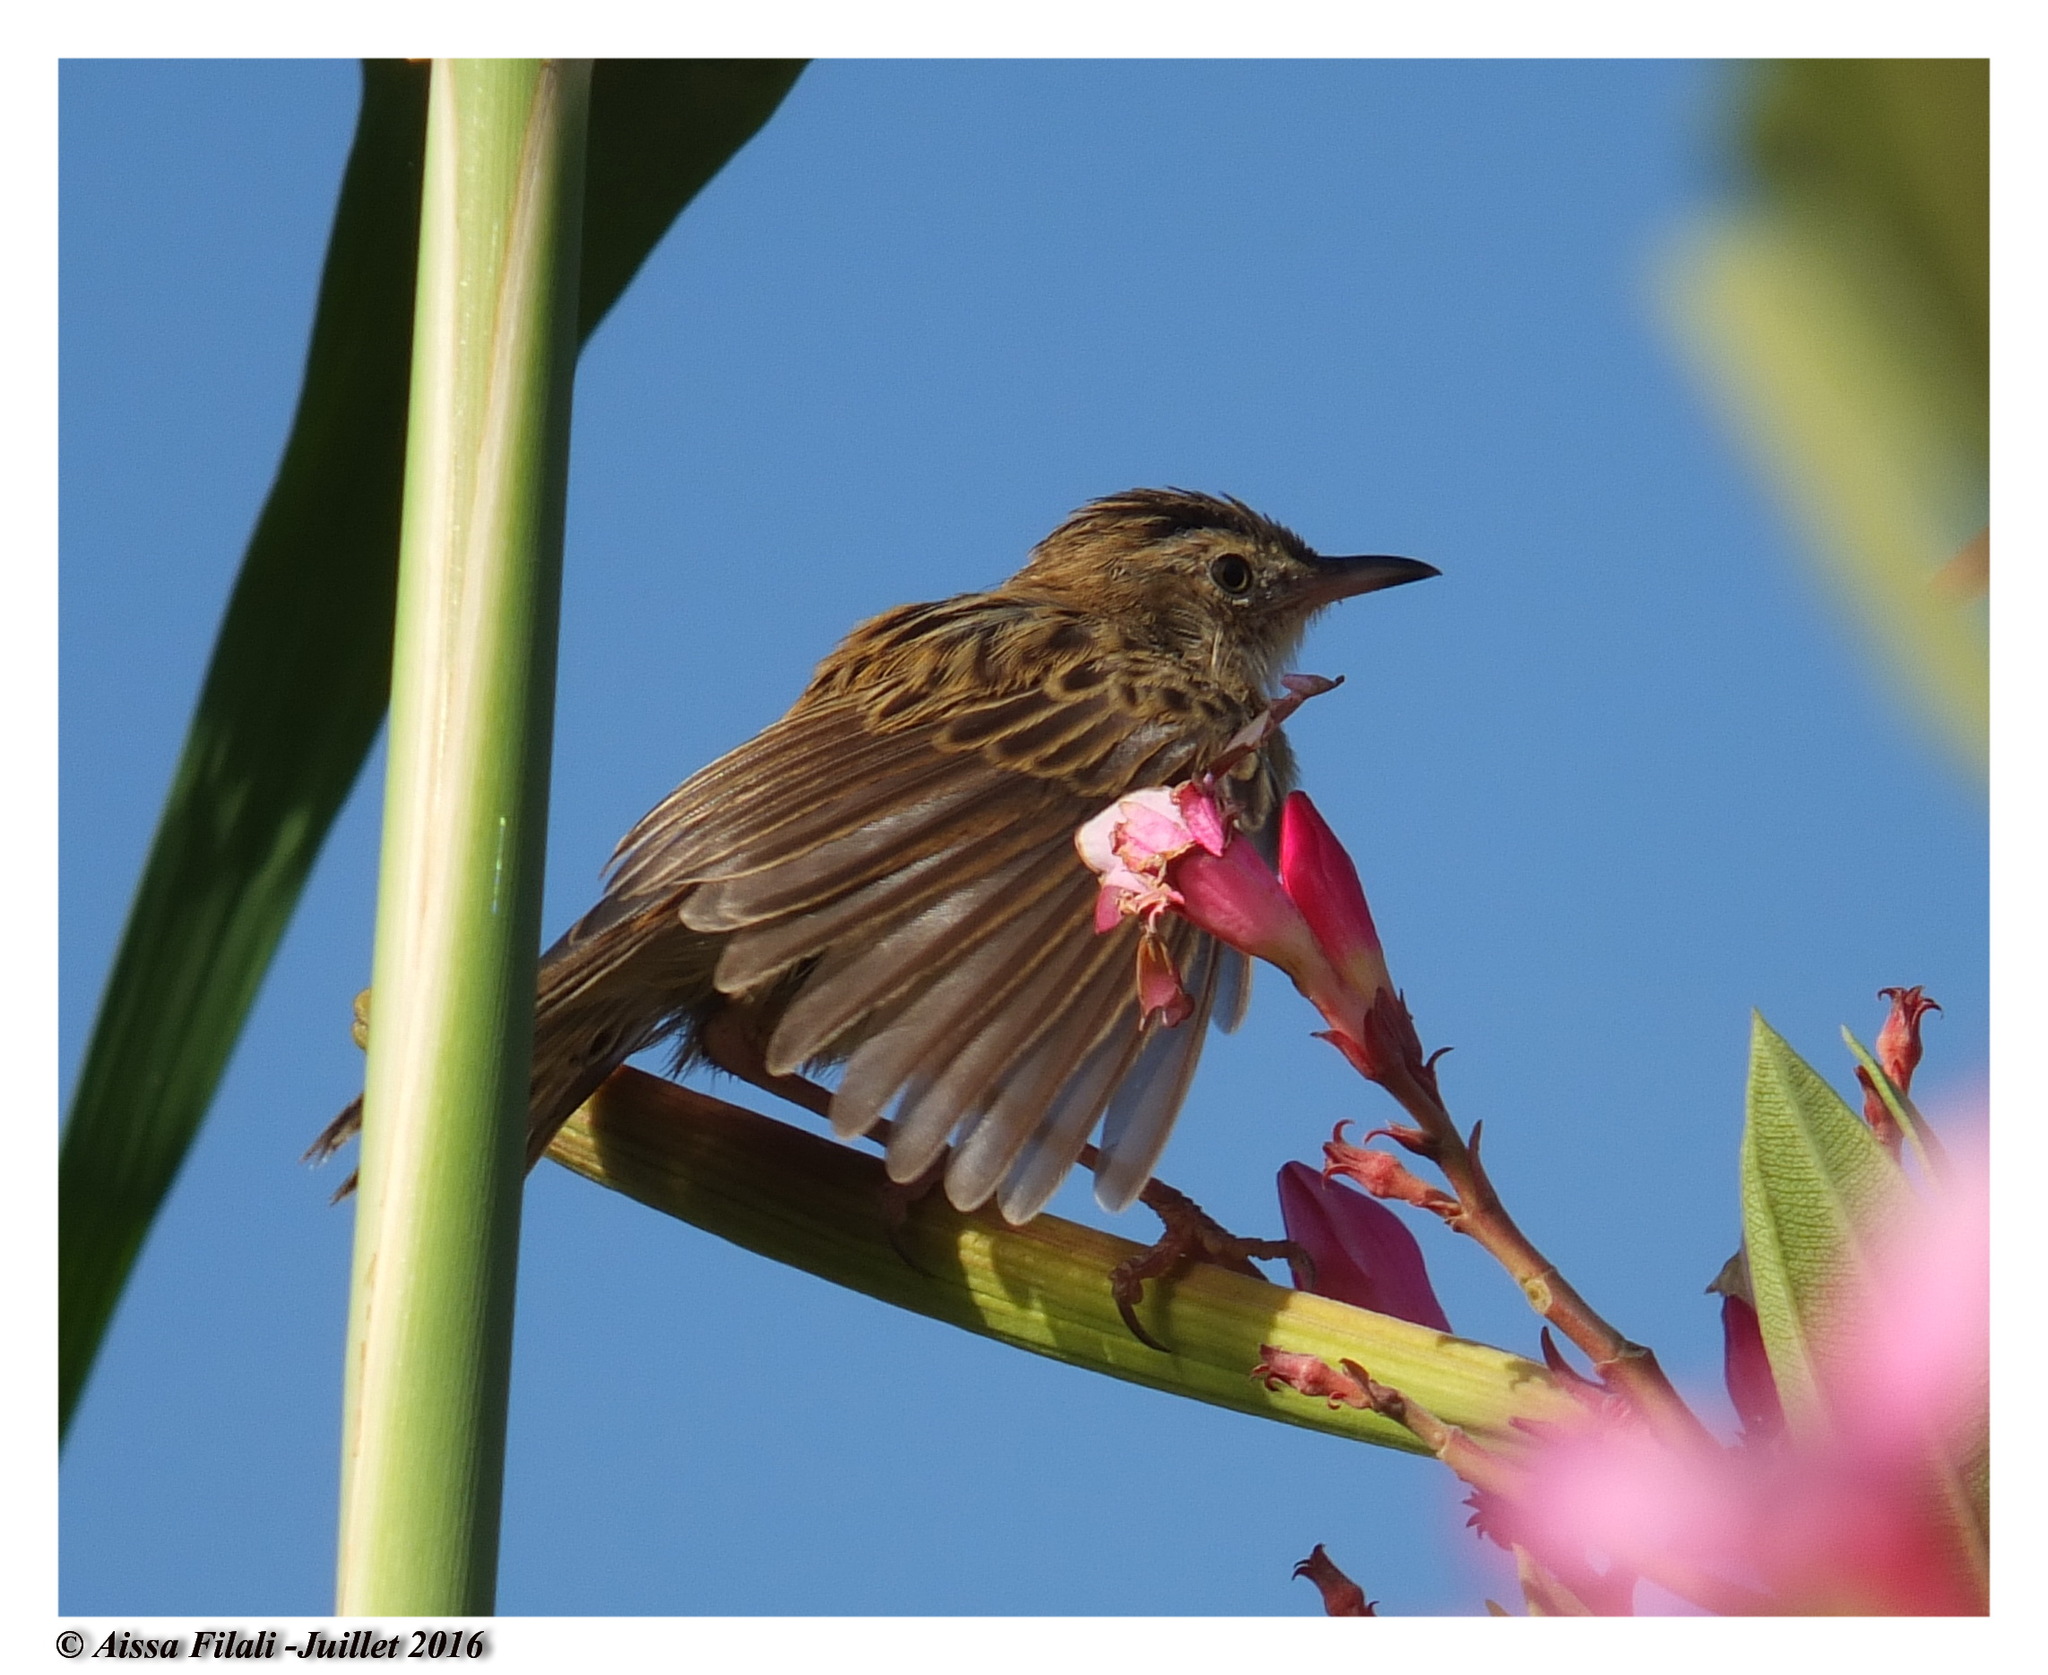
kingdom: Animalia
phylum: Chordata
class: Aves
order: Passeriformes
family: Cisticolidae
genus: Cisticola
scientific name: Cisticola juncidis
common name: Zitting cisticola
